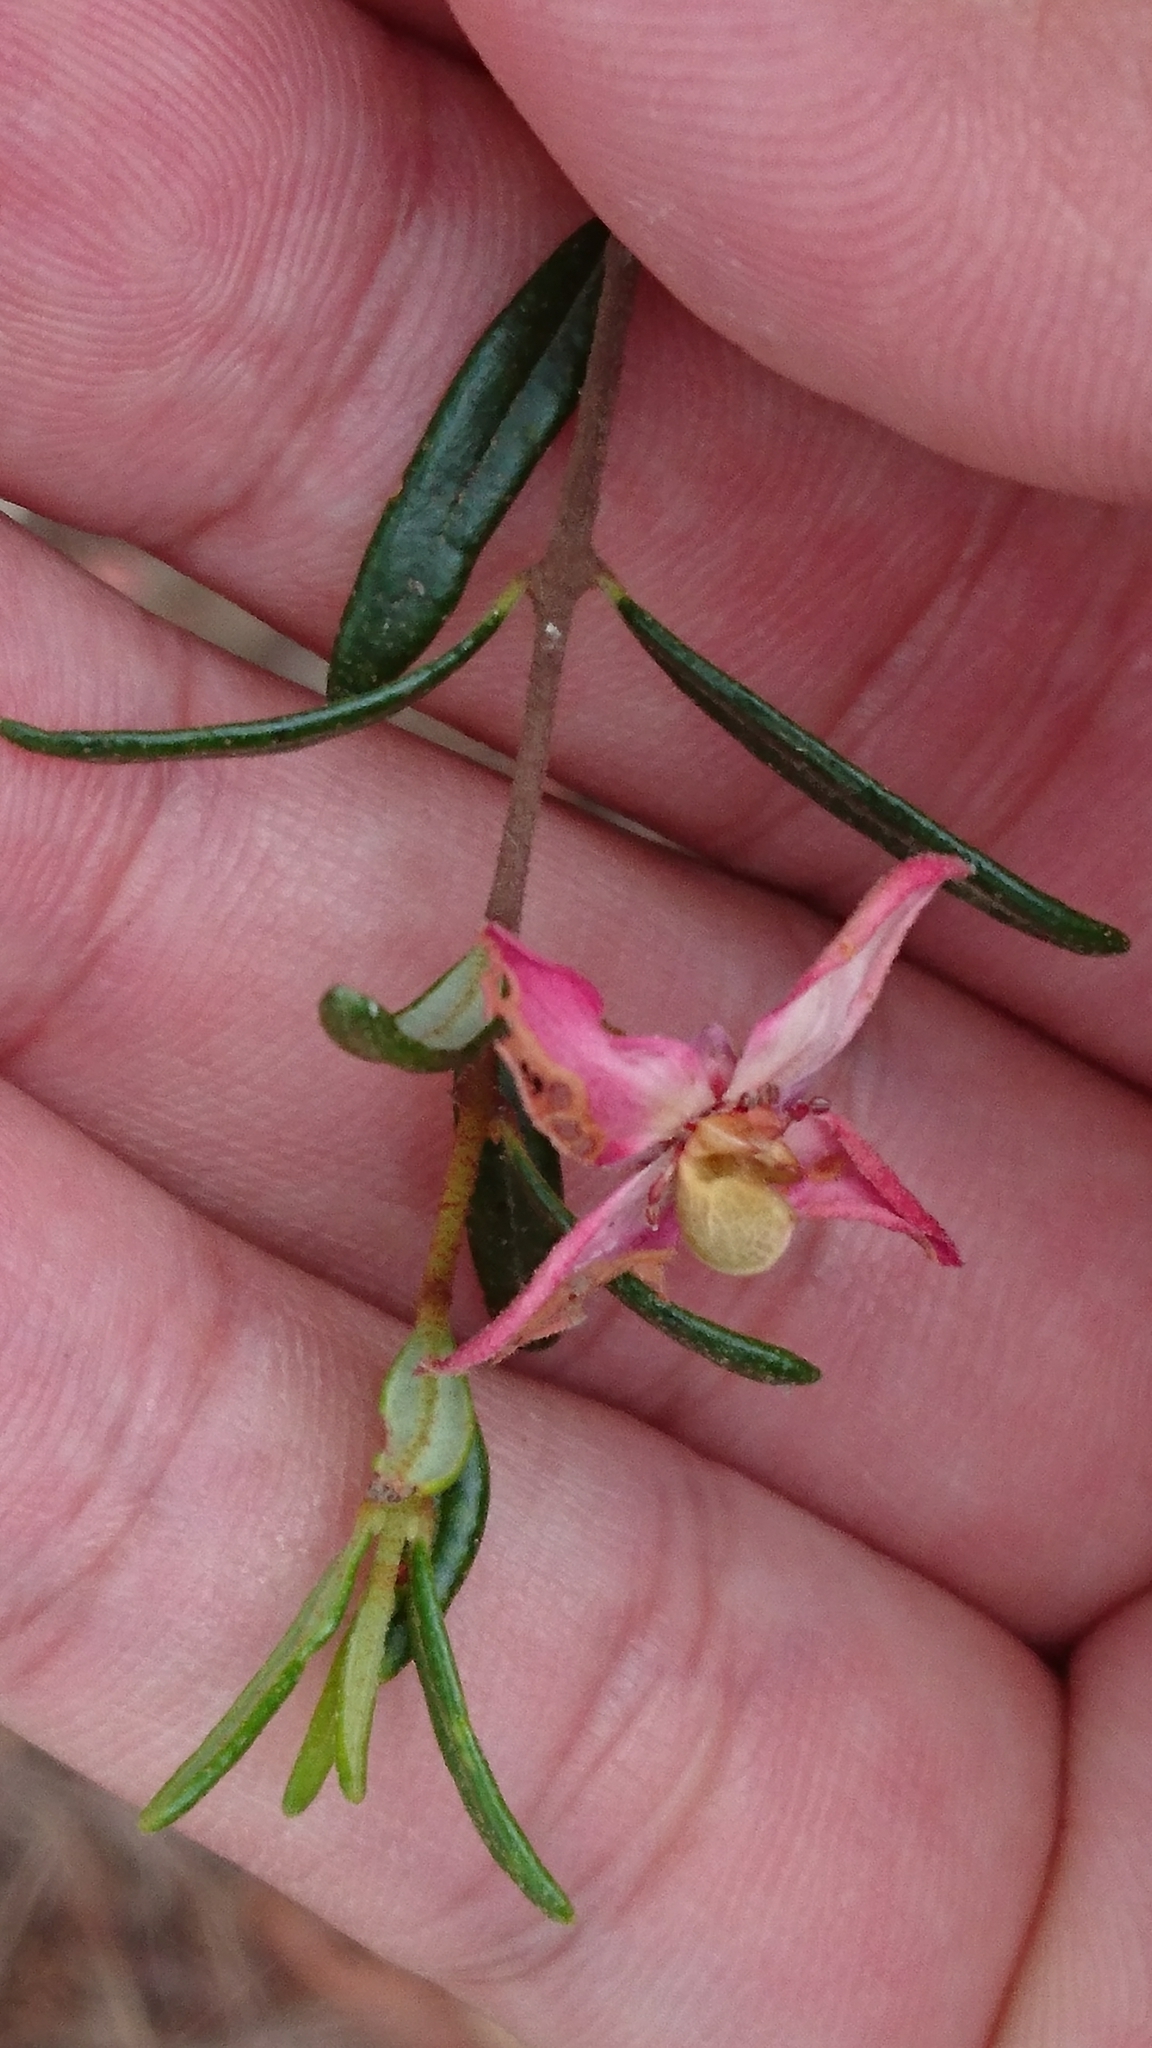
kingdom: Plantae
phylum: Tracheophyta
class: Magnoliopsida
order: Sapindales
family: Rutaceae
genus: Boronia
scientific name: Boronia ledifolia
